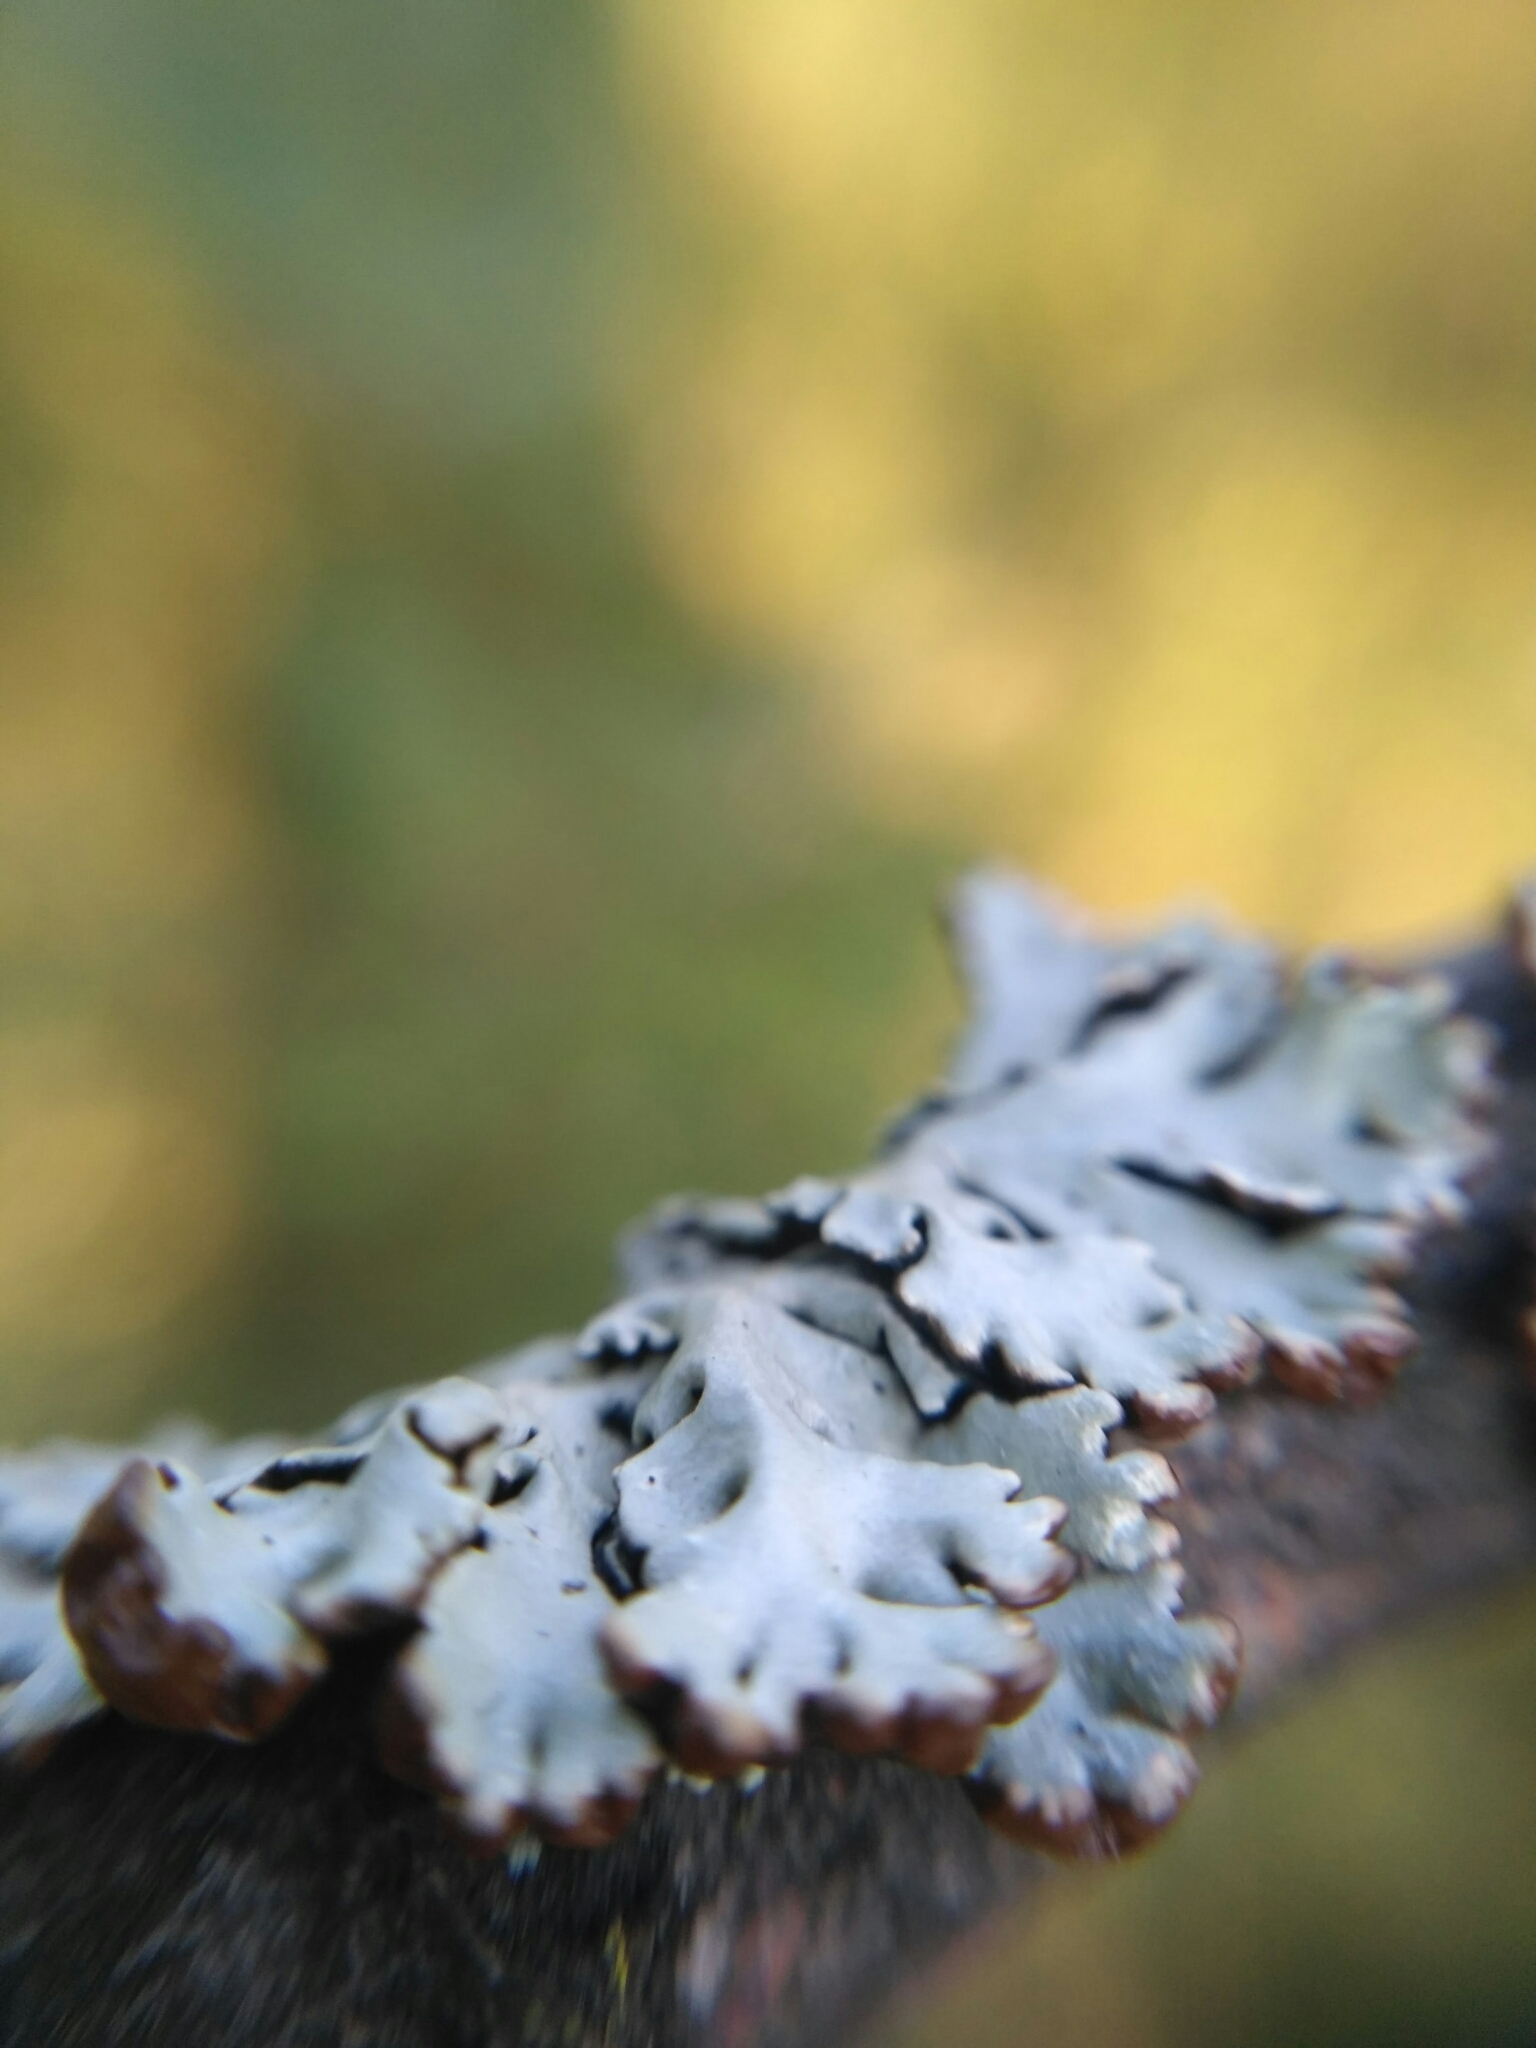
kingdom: Fungi
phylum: Ascomycota
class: Lecanoromycetes
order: Lecanorales
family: Parmeliaceae
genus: Hypogymnia
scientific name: Hypogymnia physodes
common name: Dark crottle
